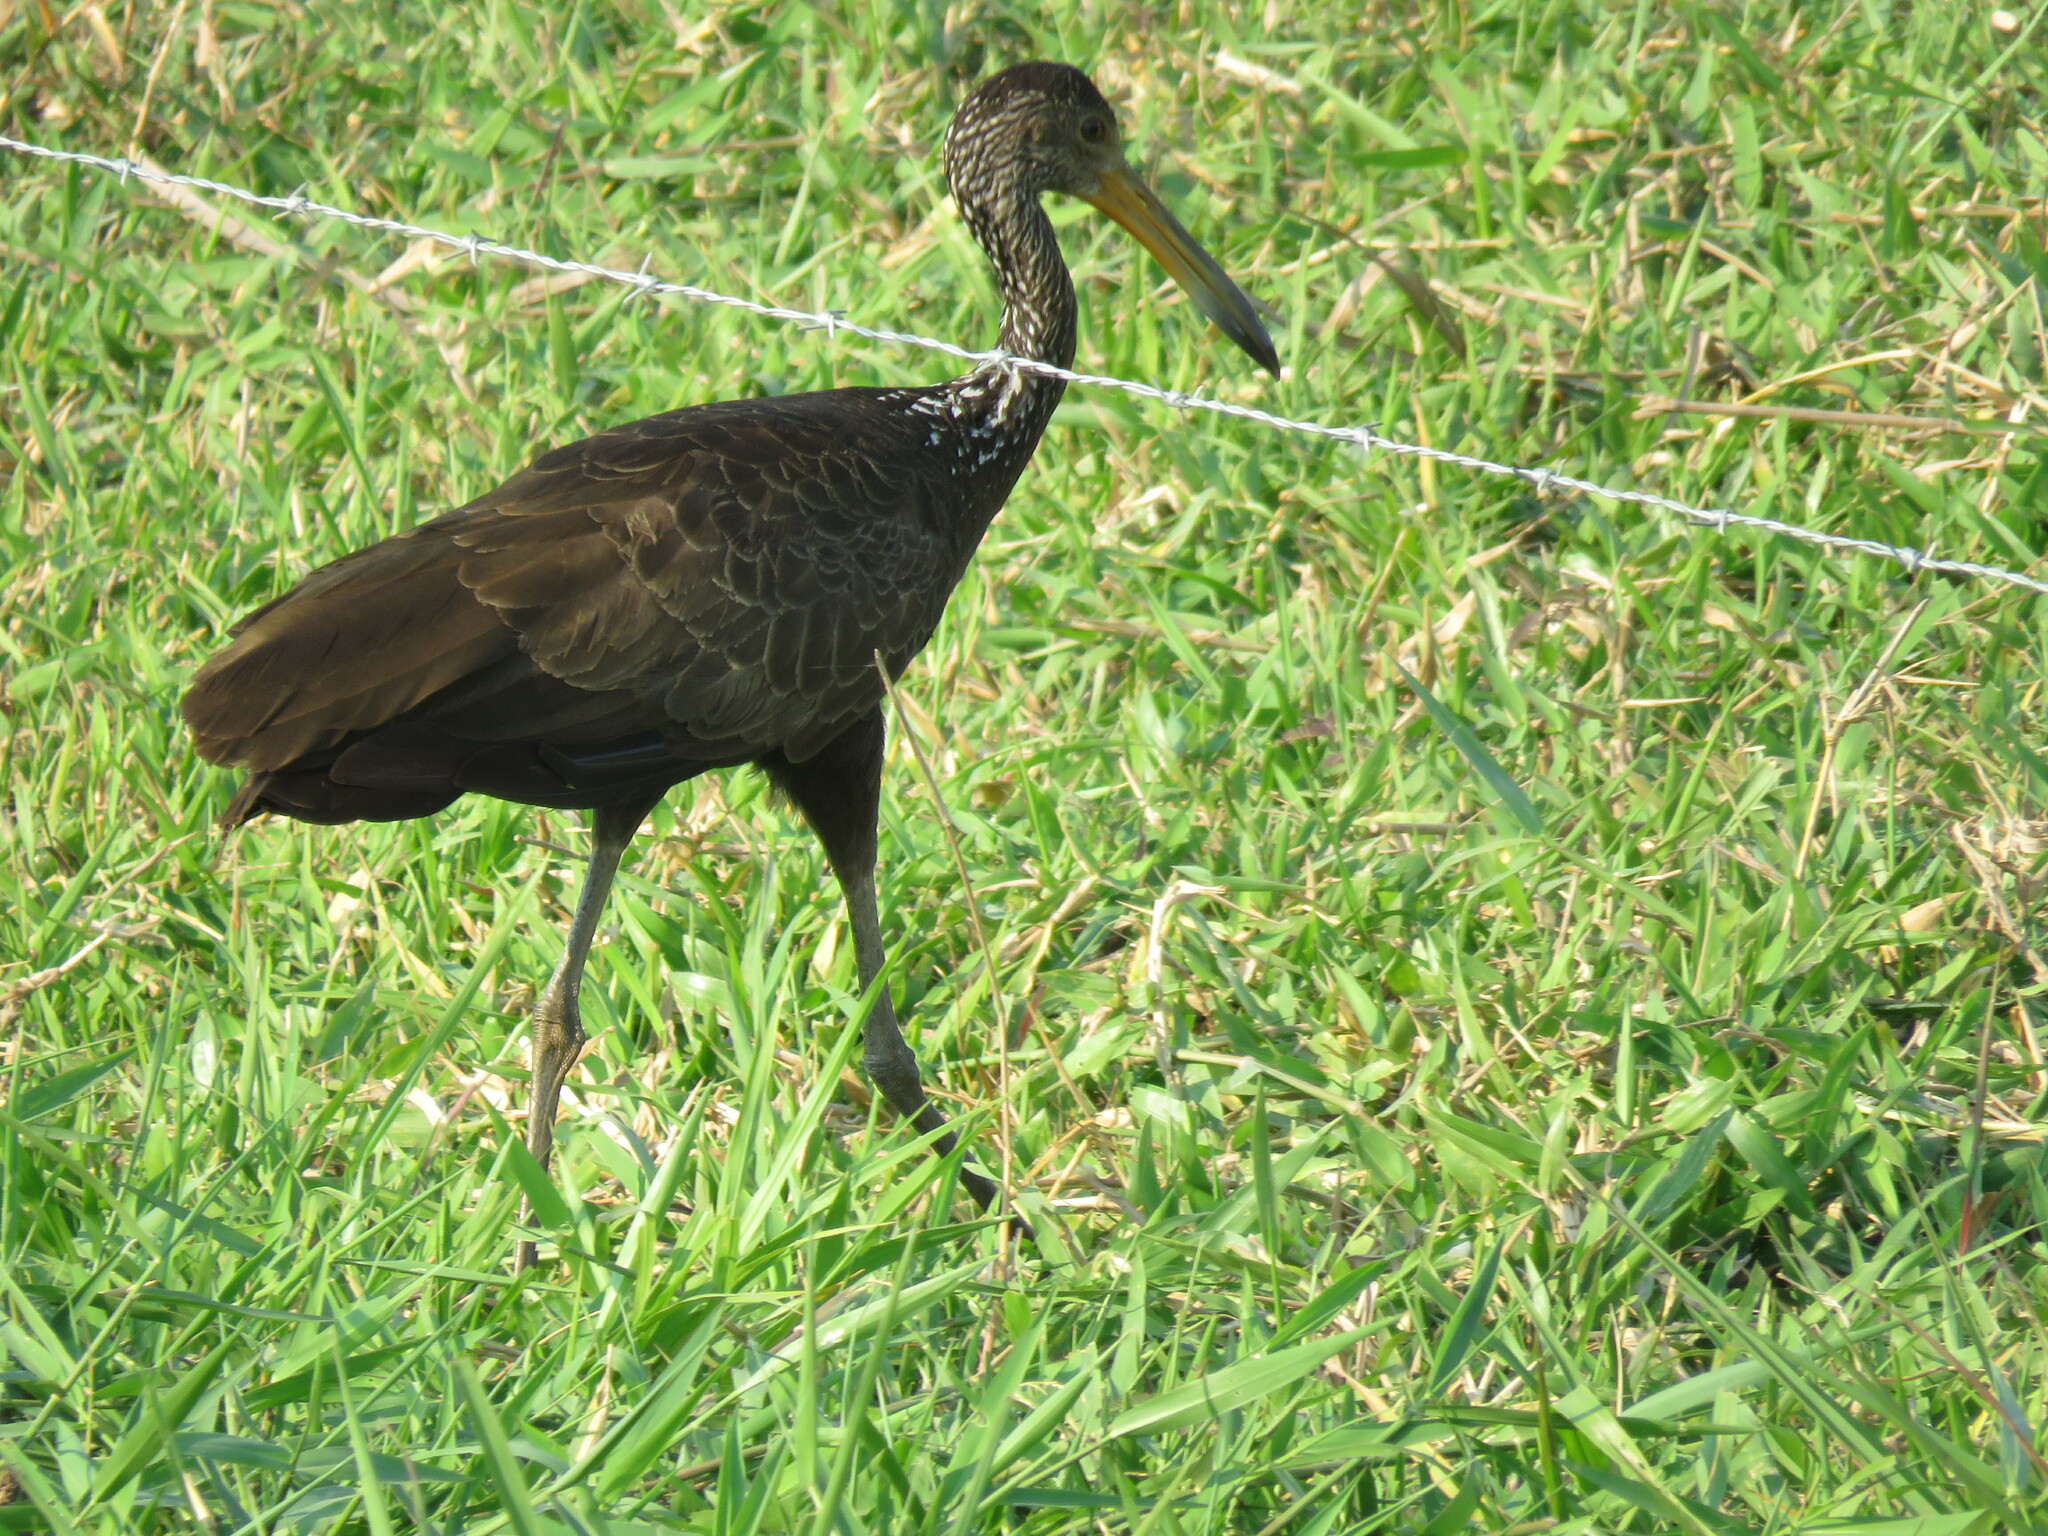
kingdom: Animalia
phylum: Chordata
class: Aves
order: Gruiformes
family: Aramidae
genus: Aramus
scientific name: Aramus guarauna
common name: Limpkin
